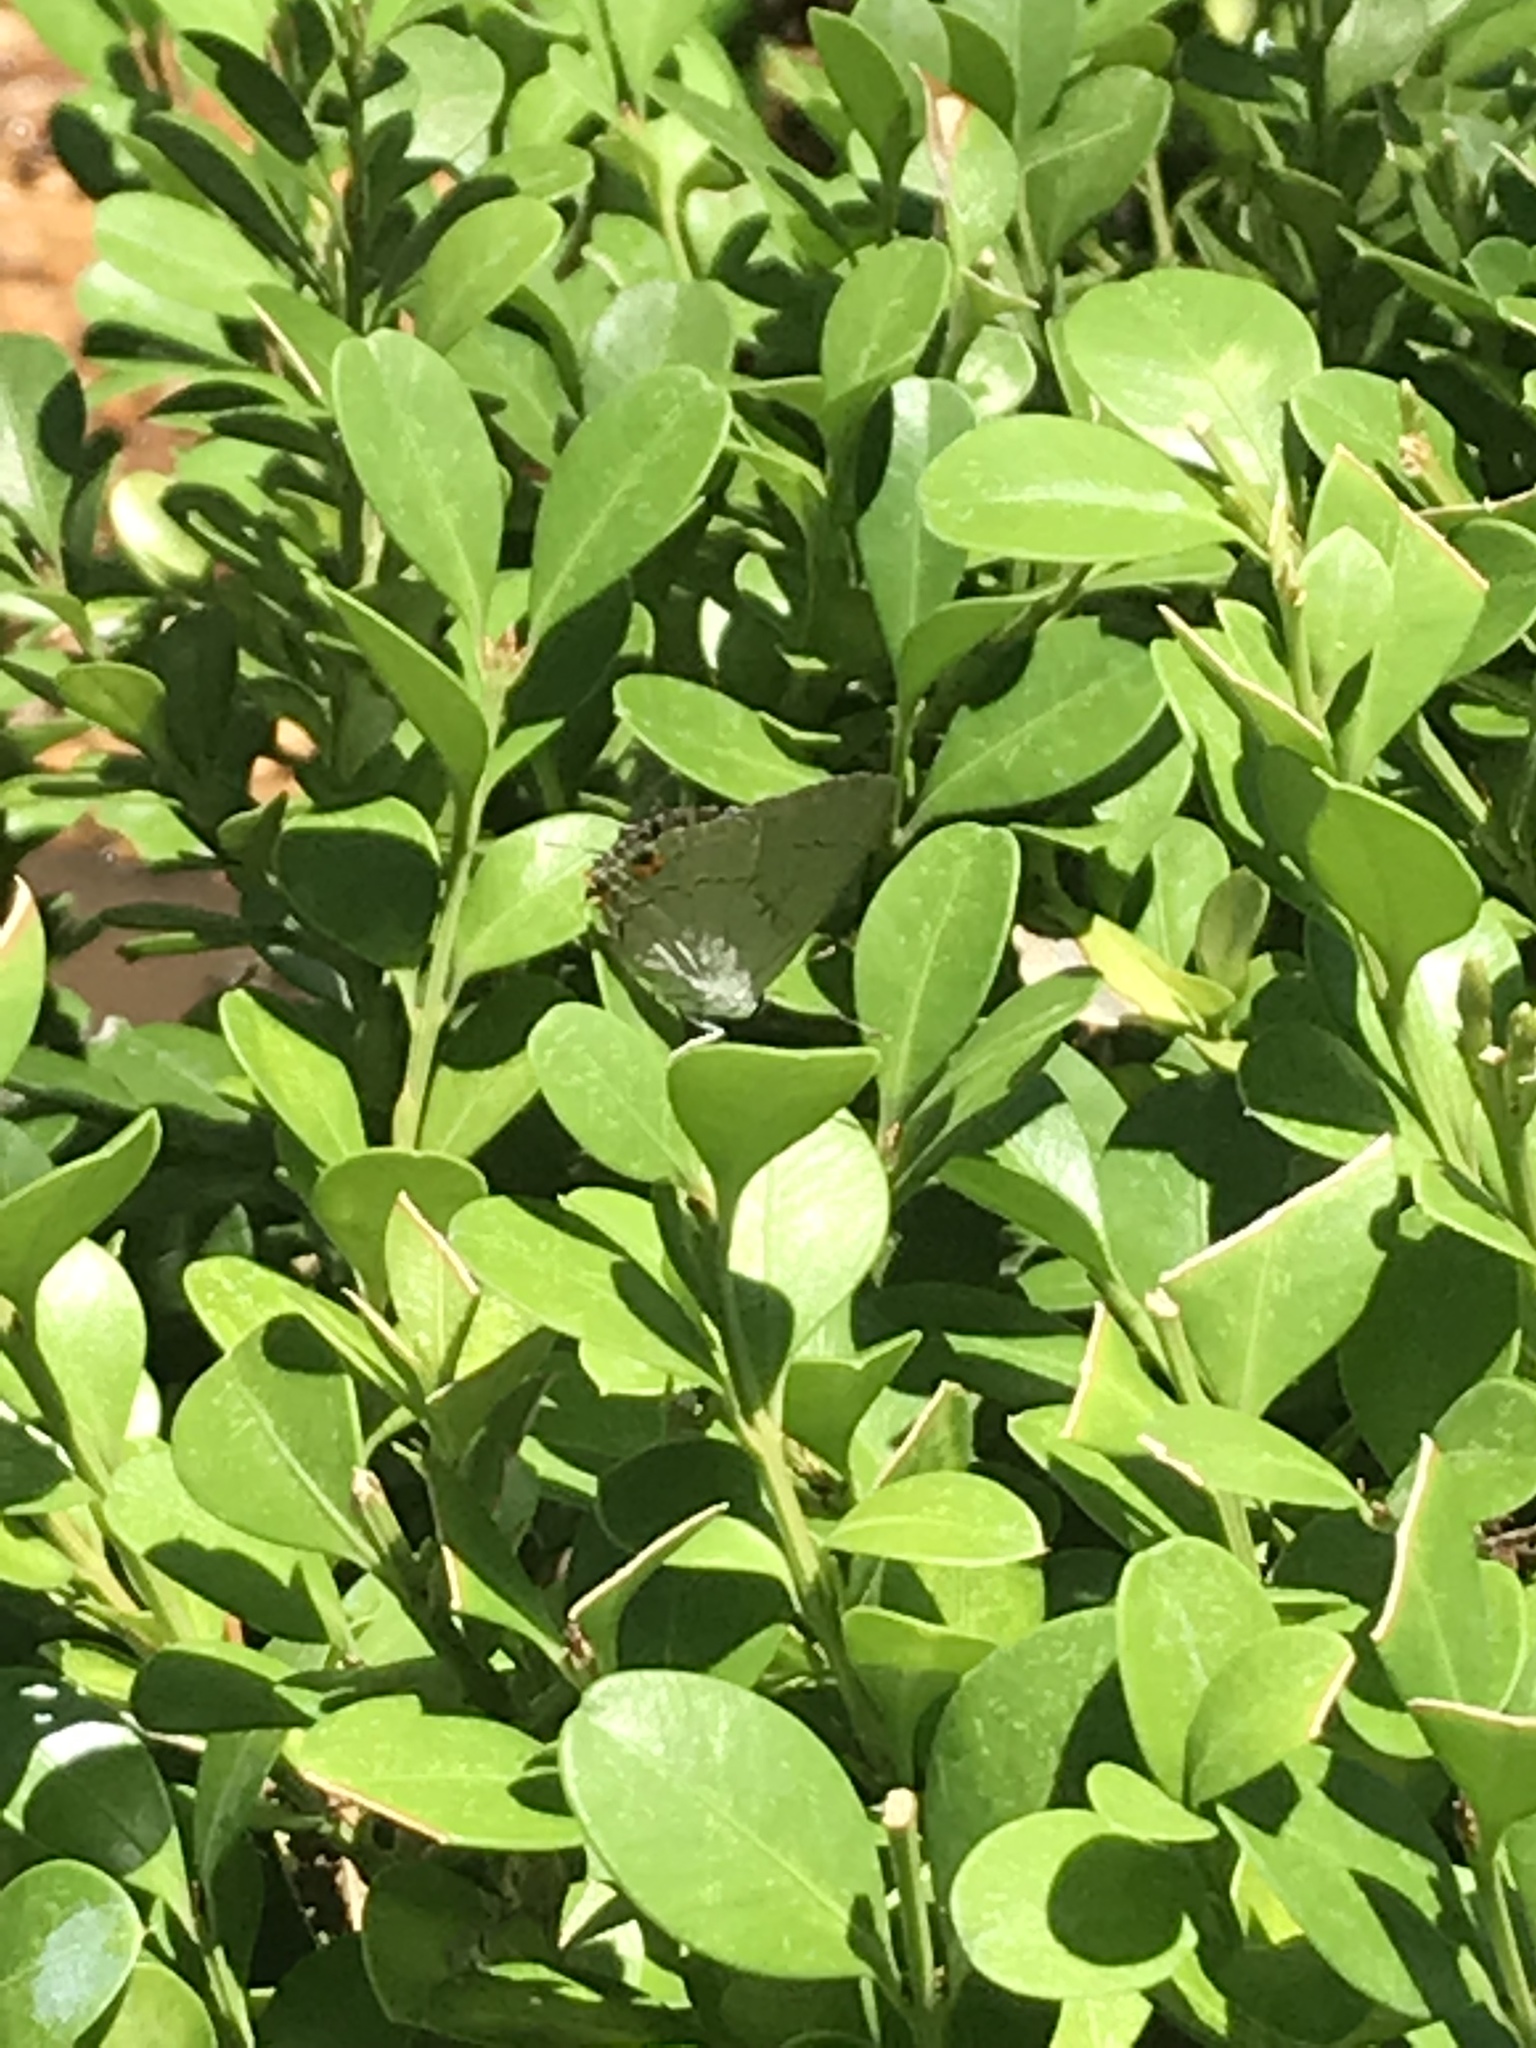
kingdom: Animalia
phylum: Arthropoda
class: Insecta
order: Lepidoptera
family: Lycaenidae
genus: Strymon
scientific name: Strymon melinus
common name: Gray hairstreak
